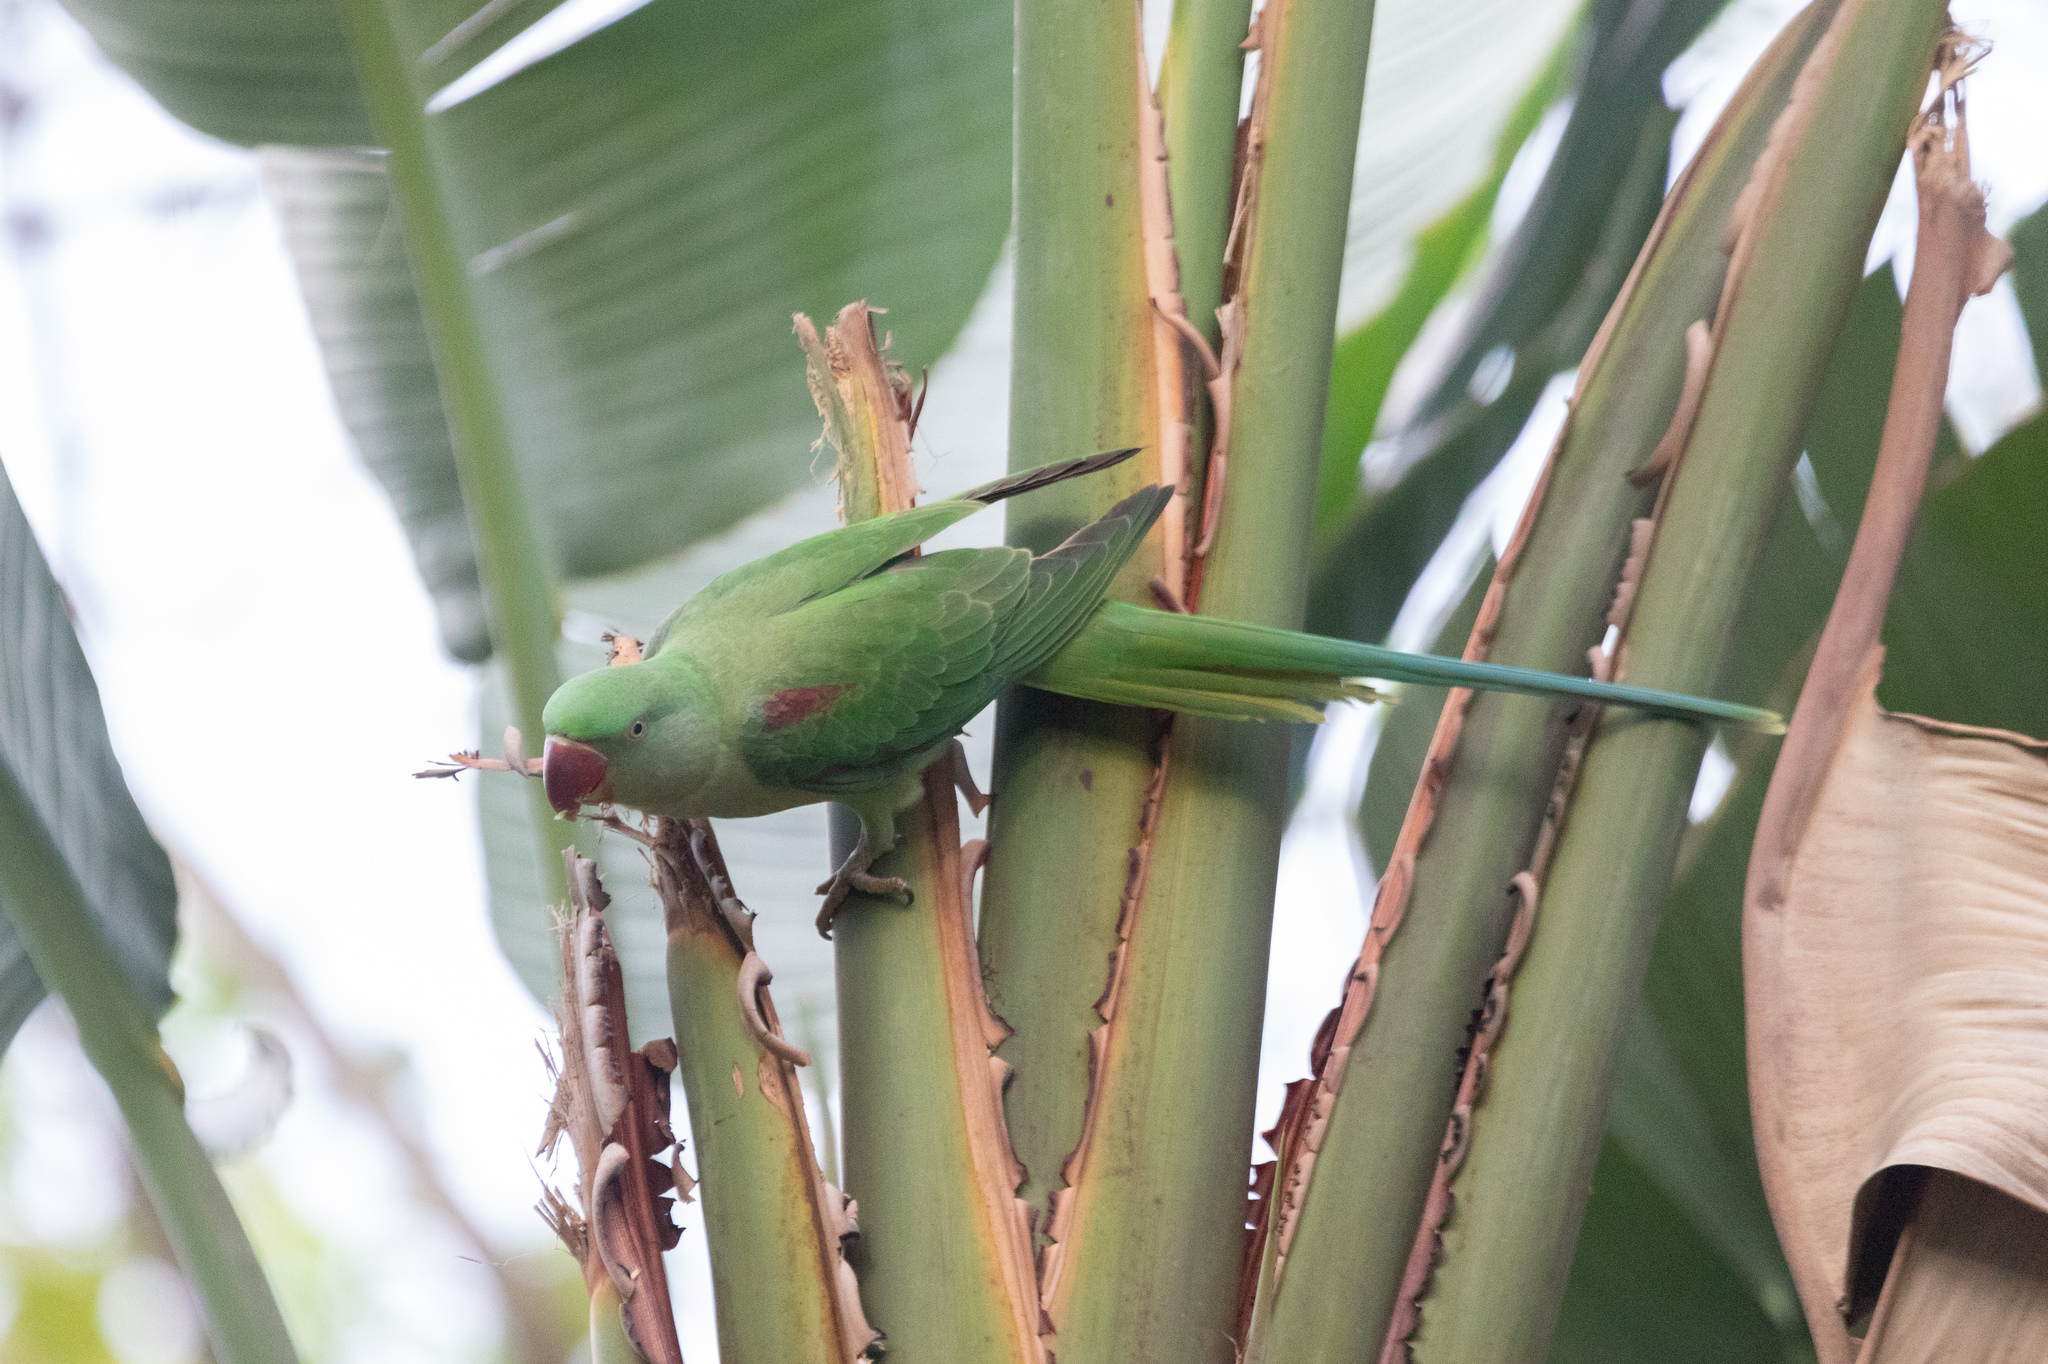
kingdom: Animalia
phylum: Chordata
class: Aves
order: Psittaciformes
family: Psittacidae
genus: Psittacula
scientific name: Psittacula eupatria
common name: Alexandrine parakeet
